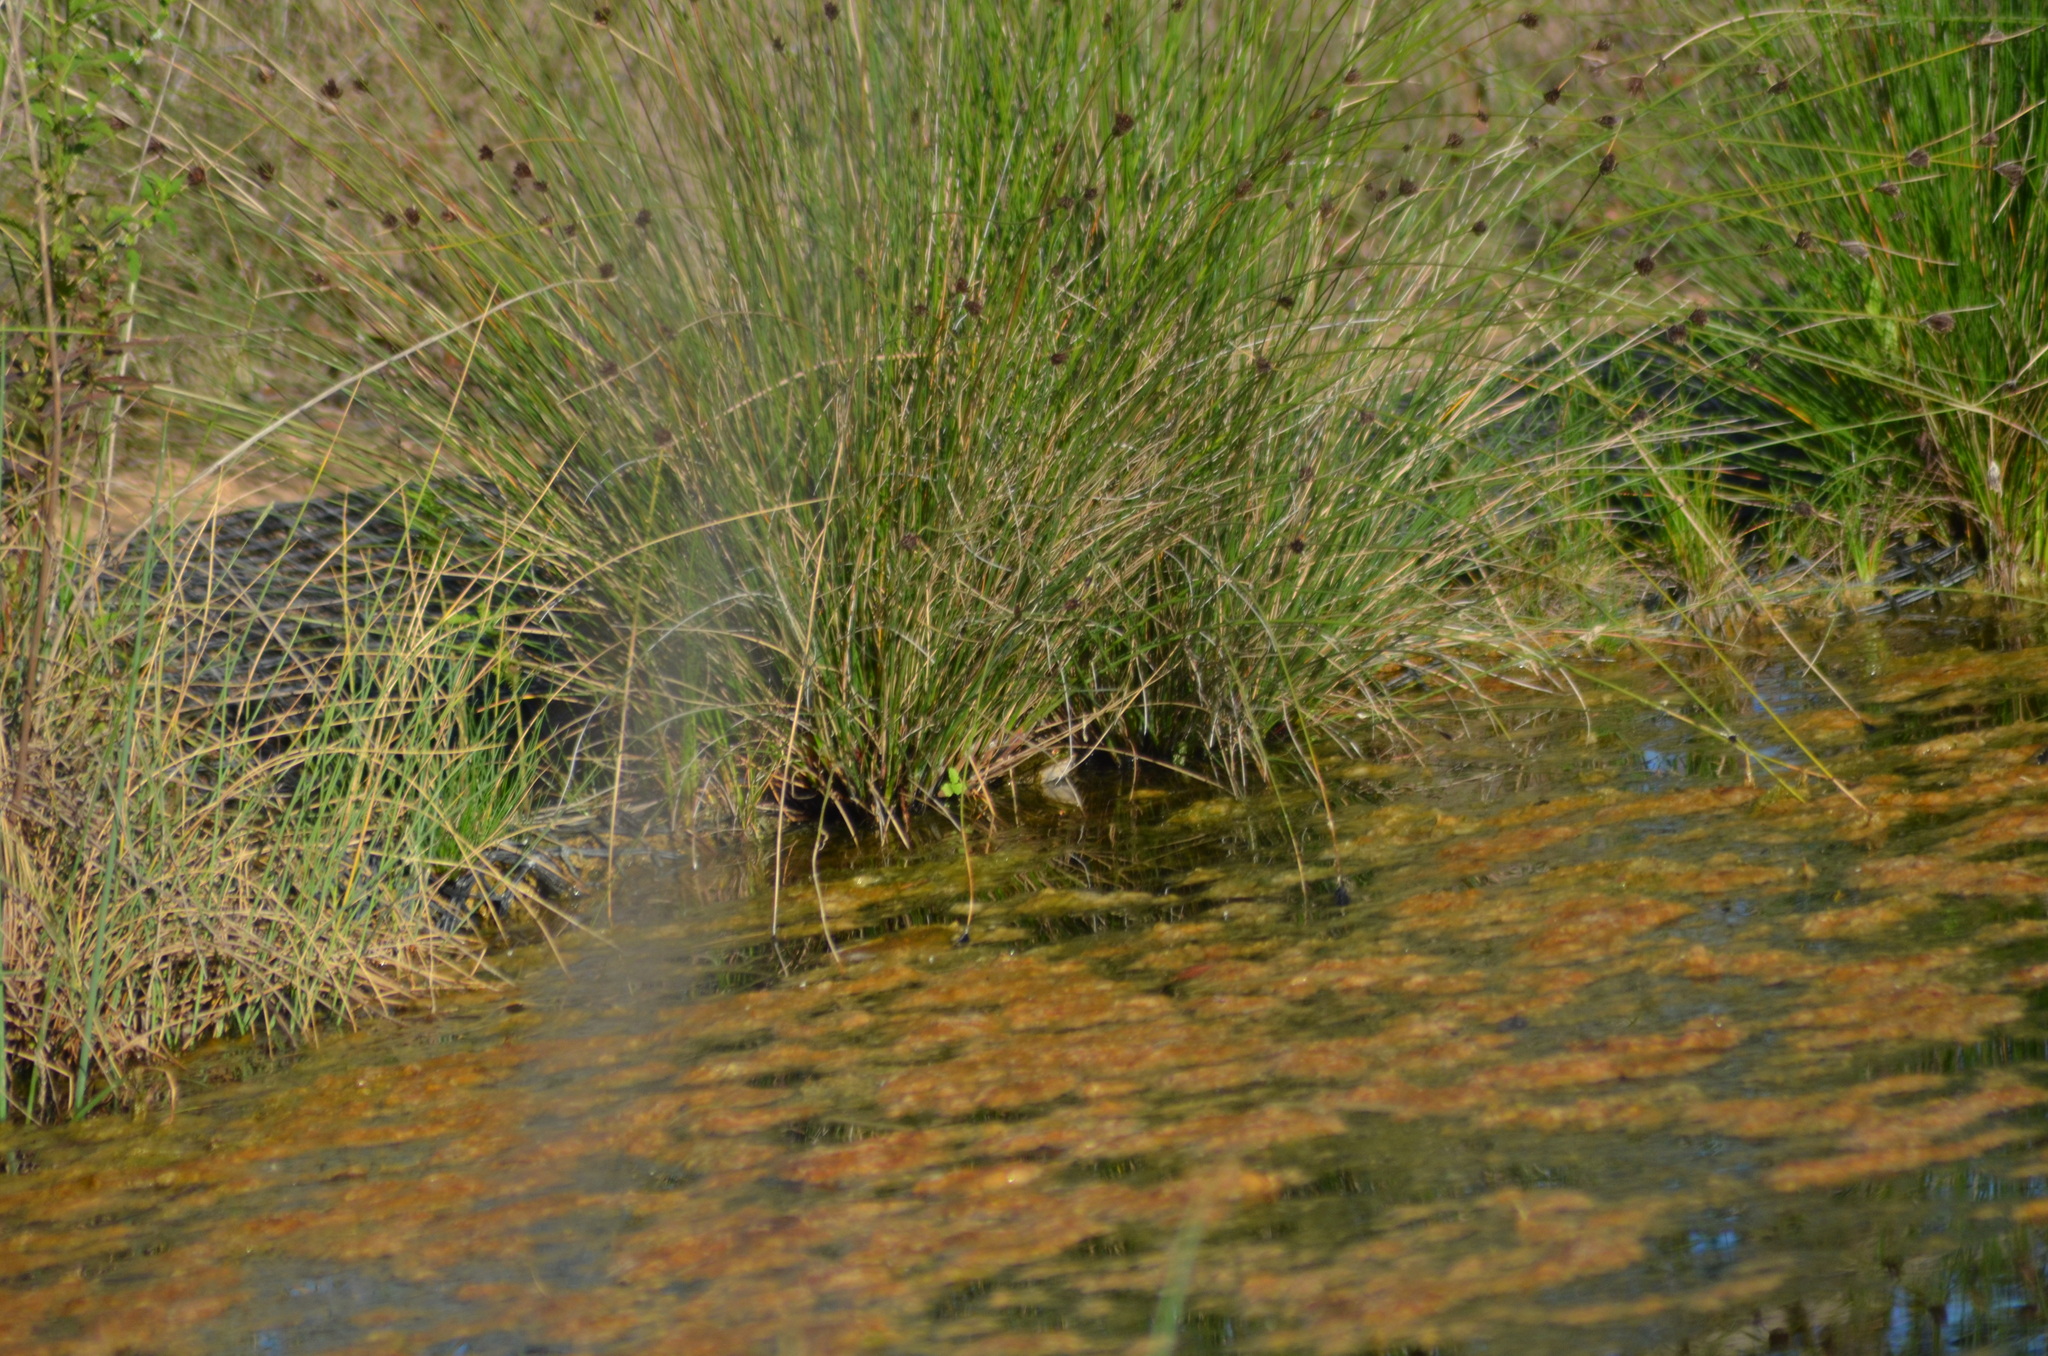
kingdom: Animalia
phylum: Chordata
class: Amphibia
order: Anura
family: Ranidae
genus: Pelophylax
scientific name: Pelophylax
